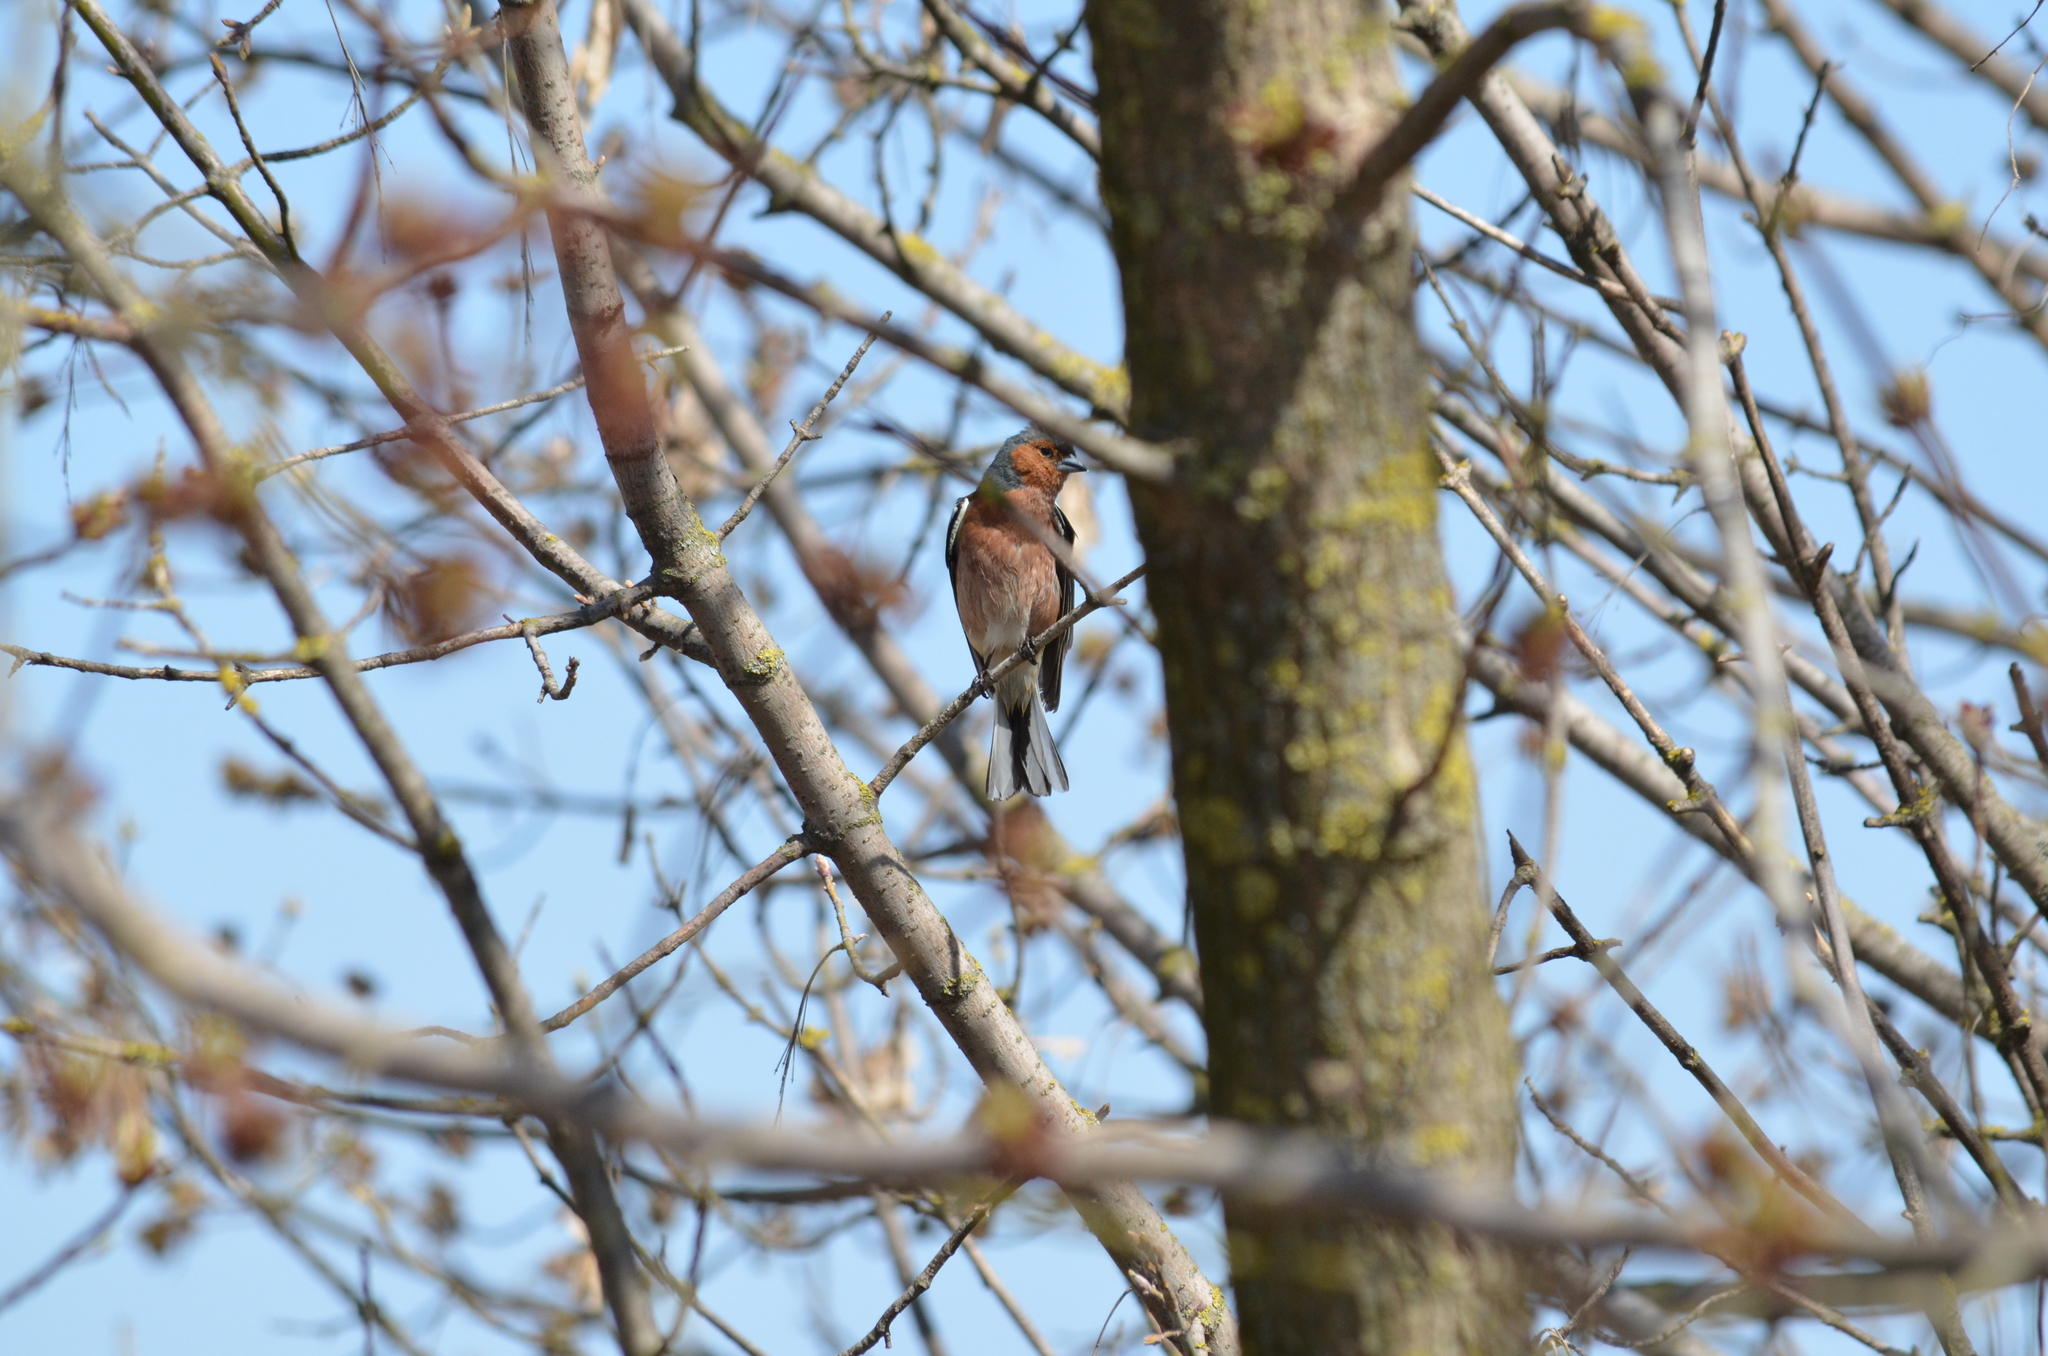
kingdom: Animalia
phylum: Chordata
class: Aves
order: Passeriformes
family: Fringillidae
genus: Fringilla
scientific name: Fringilla coelebs
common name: Common chaffinch
